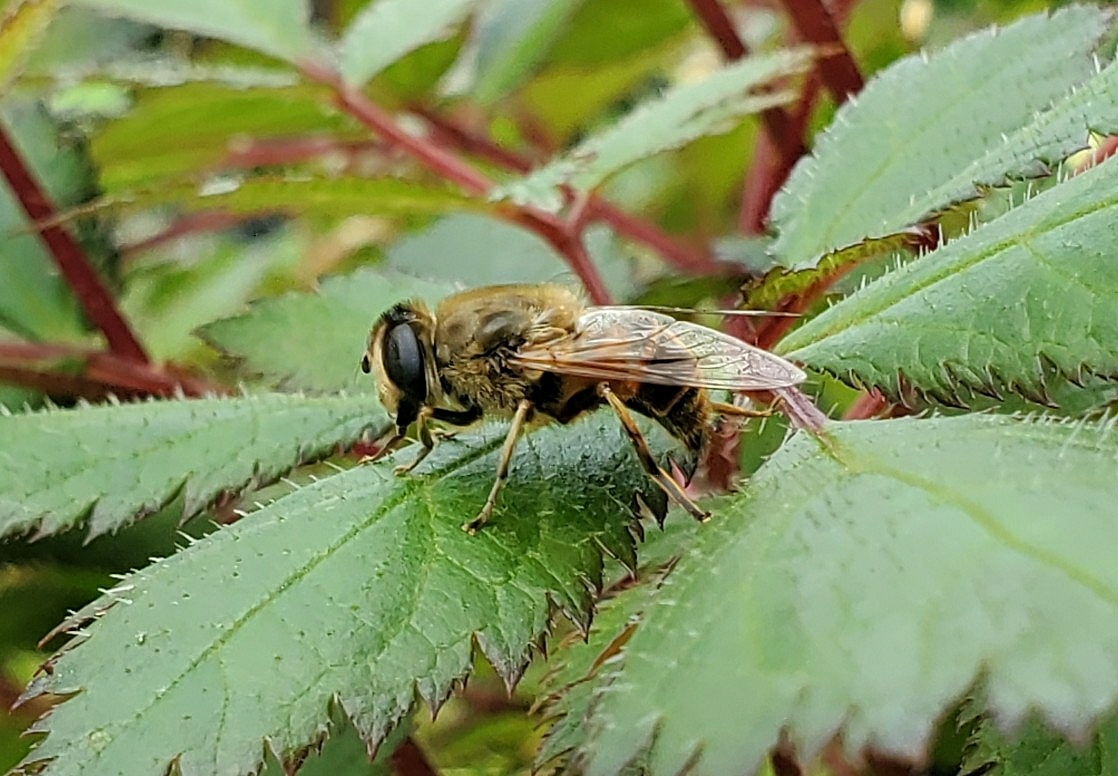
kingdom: Animalia
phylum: Arthropoda
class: Insecta
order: Diptera
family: Syrphidae
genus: Eristalis
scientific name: Eristalis tenax
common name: Drone fly
